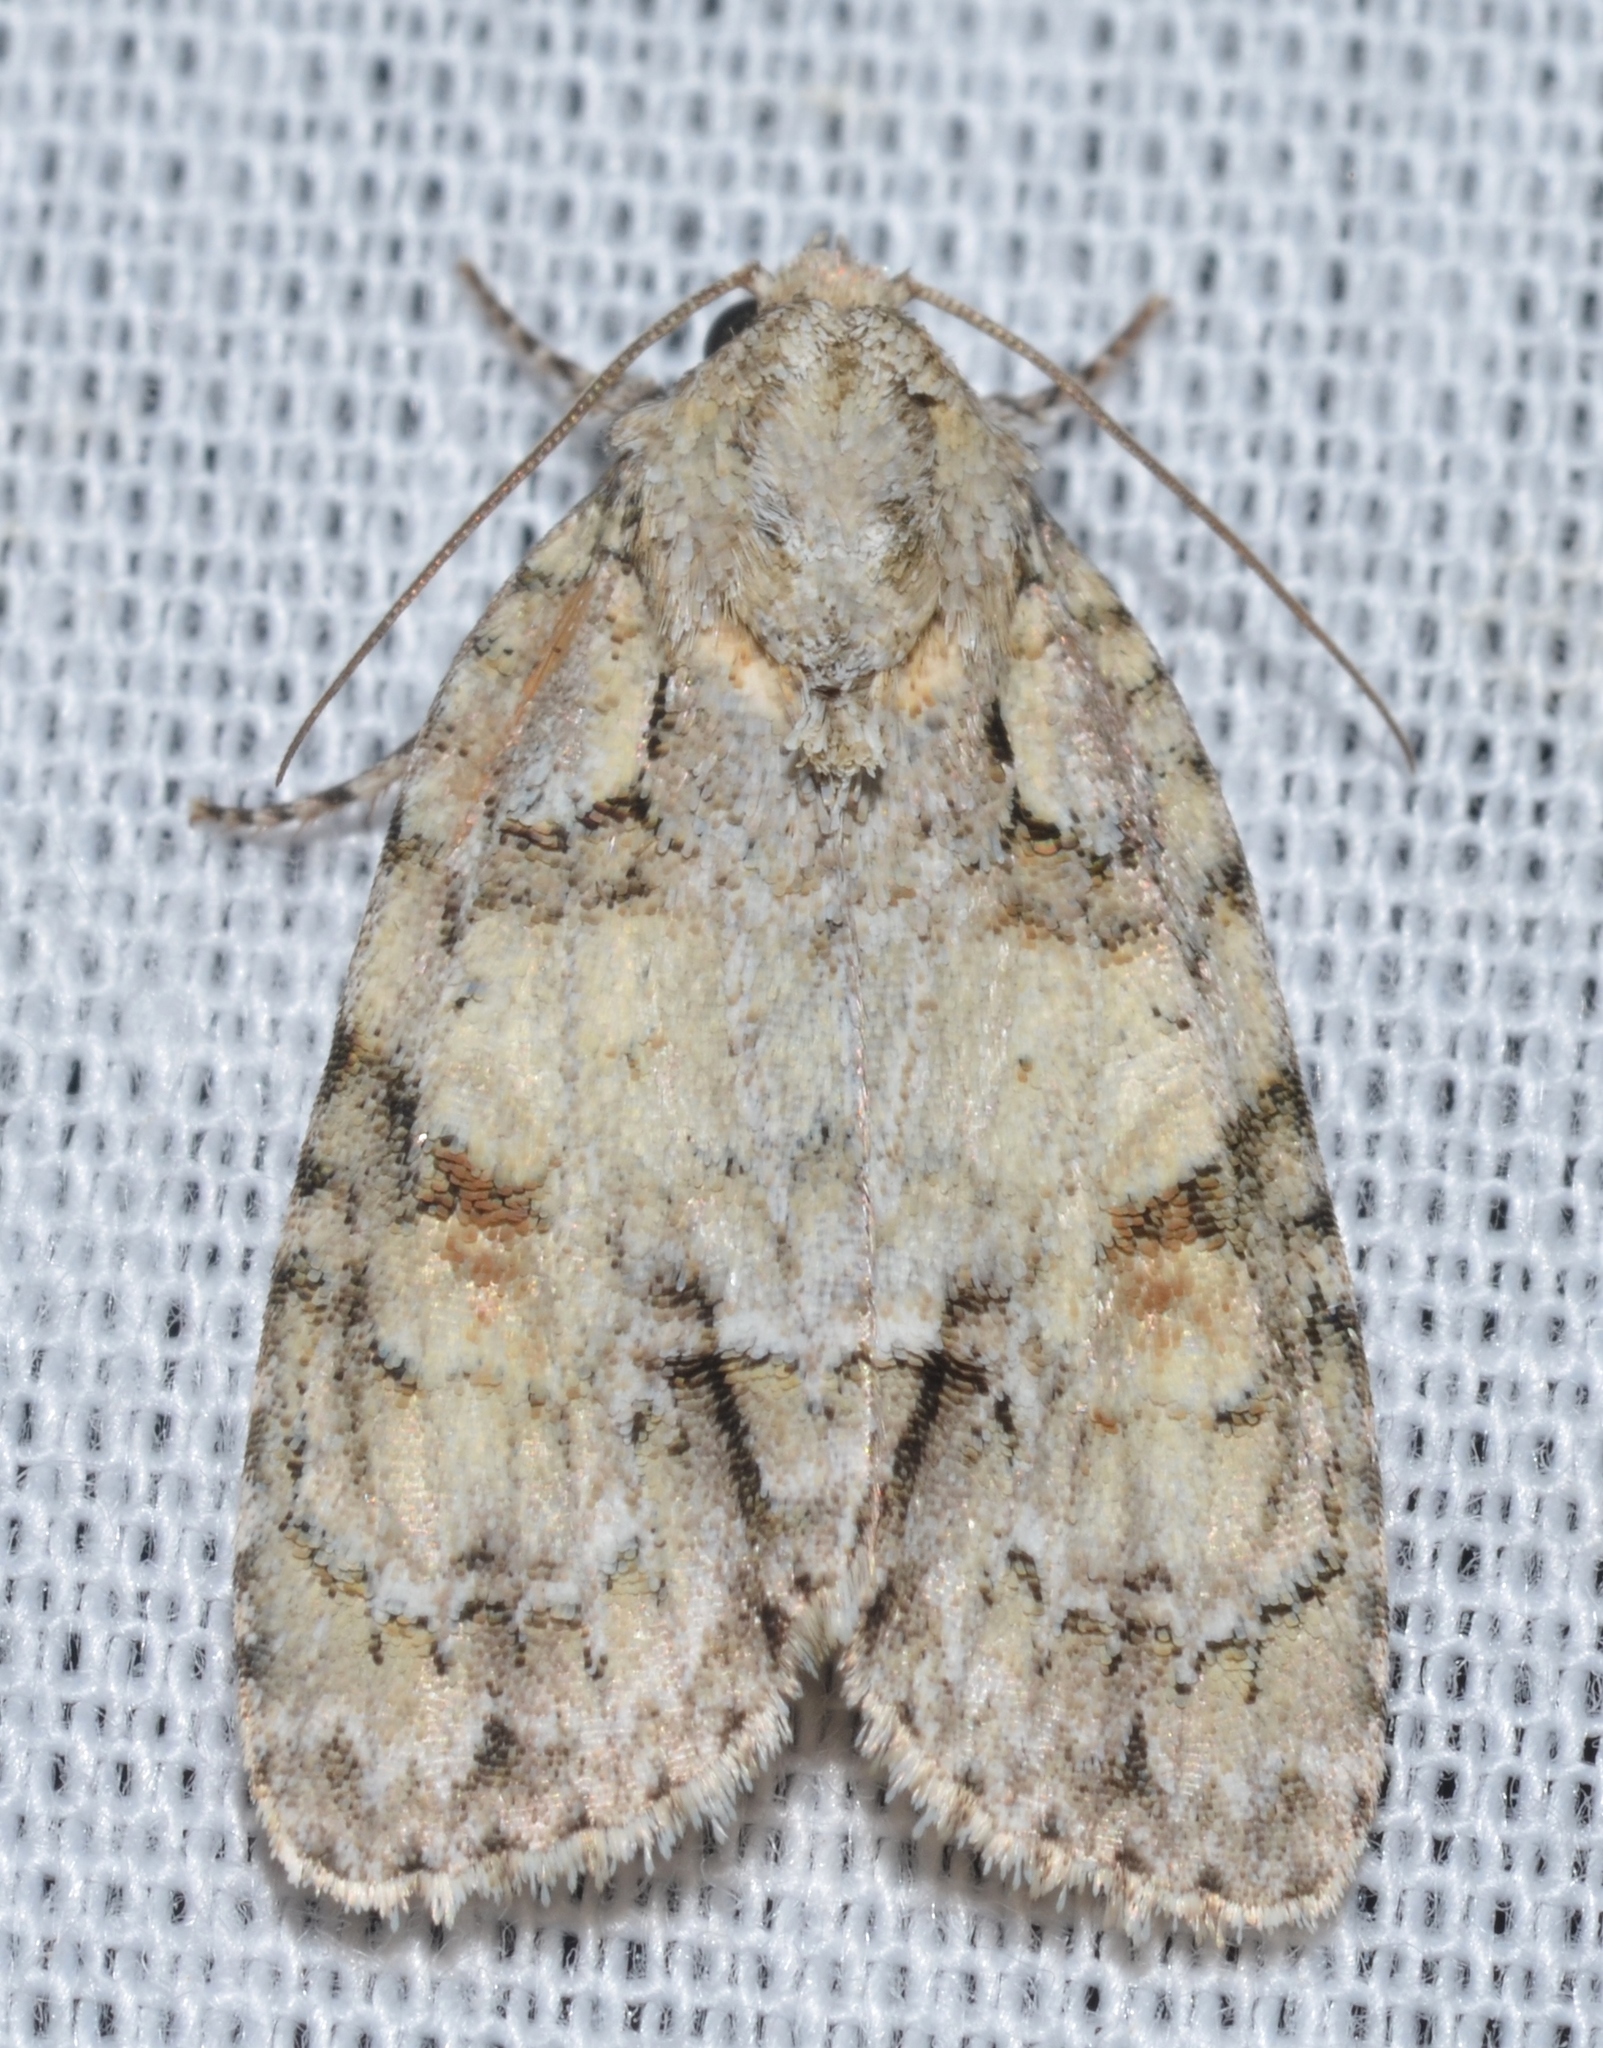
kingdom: Animalia
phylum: Arthropoda
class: Insecta
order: Lepidoptera
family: Noctuidae
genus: Acronicta
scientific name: Acronicta exilis
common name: Exiled dagger moth
